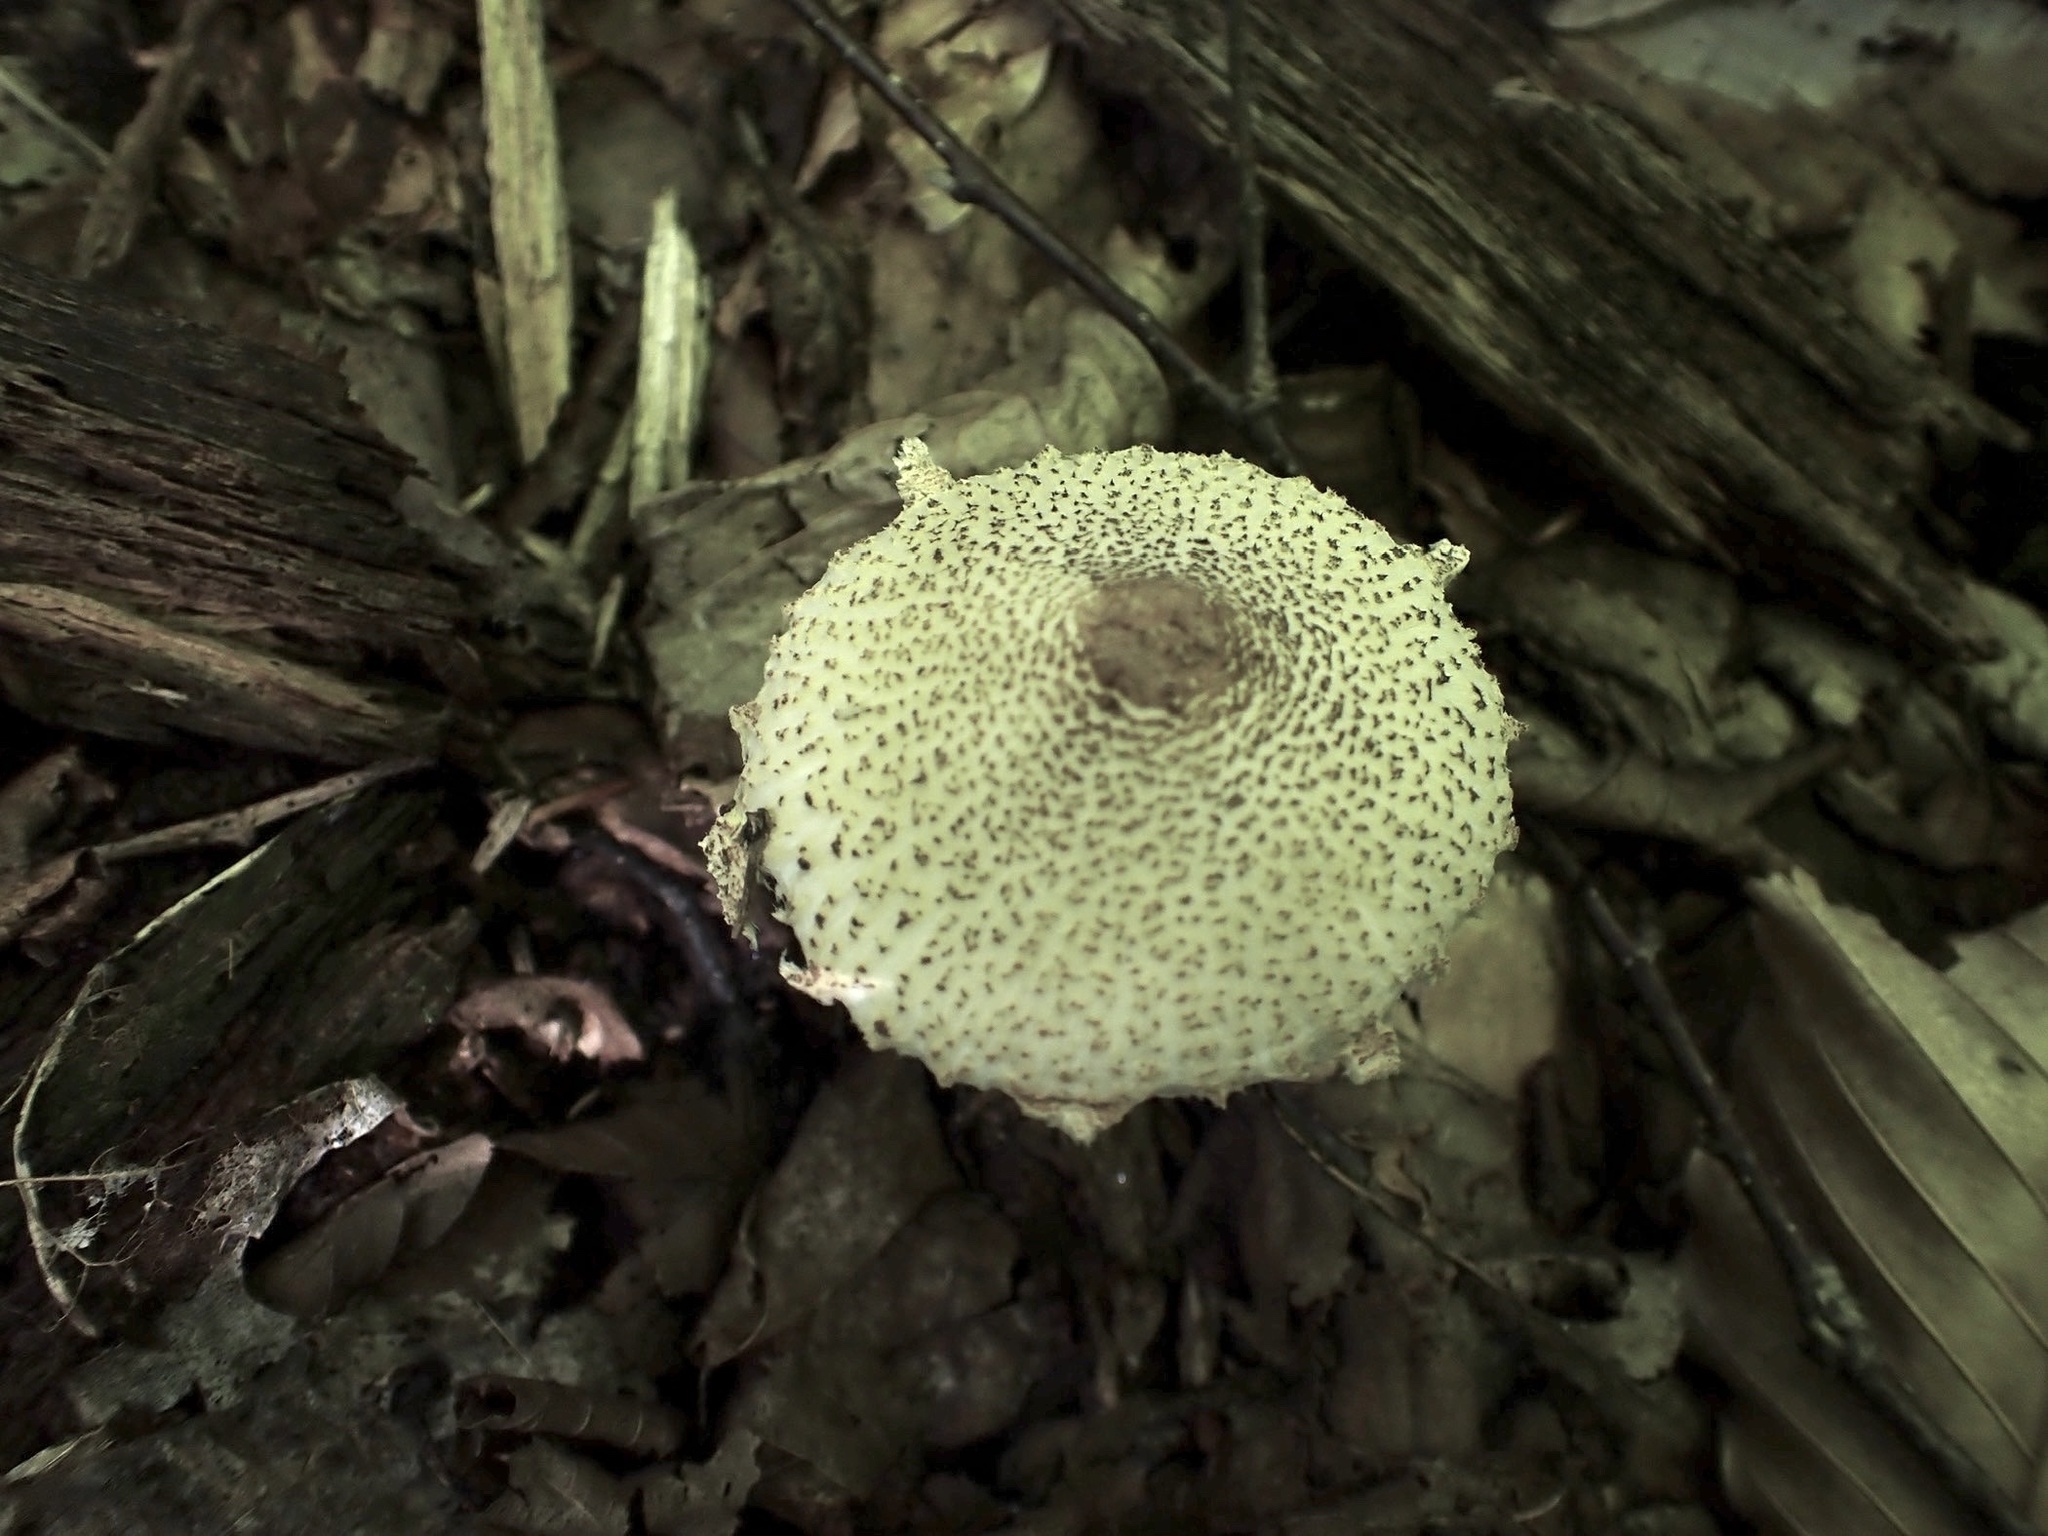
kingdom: Fungi
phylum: Basidiomycota
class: Agaricomycetes
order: Agaricales
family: Agaricaceae
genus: Lepiota
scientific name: Lepiota clypeolaria
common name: Shield dapperling
